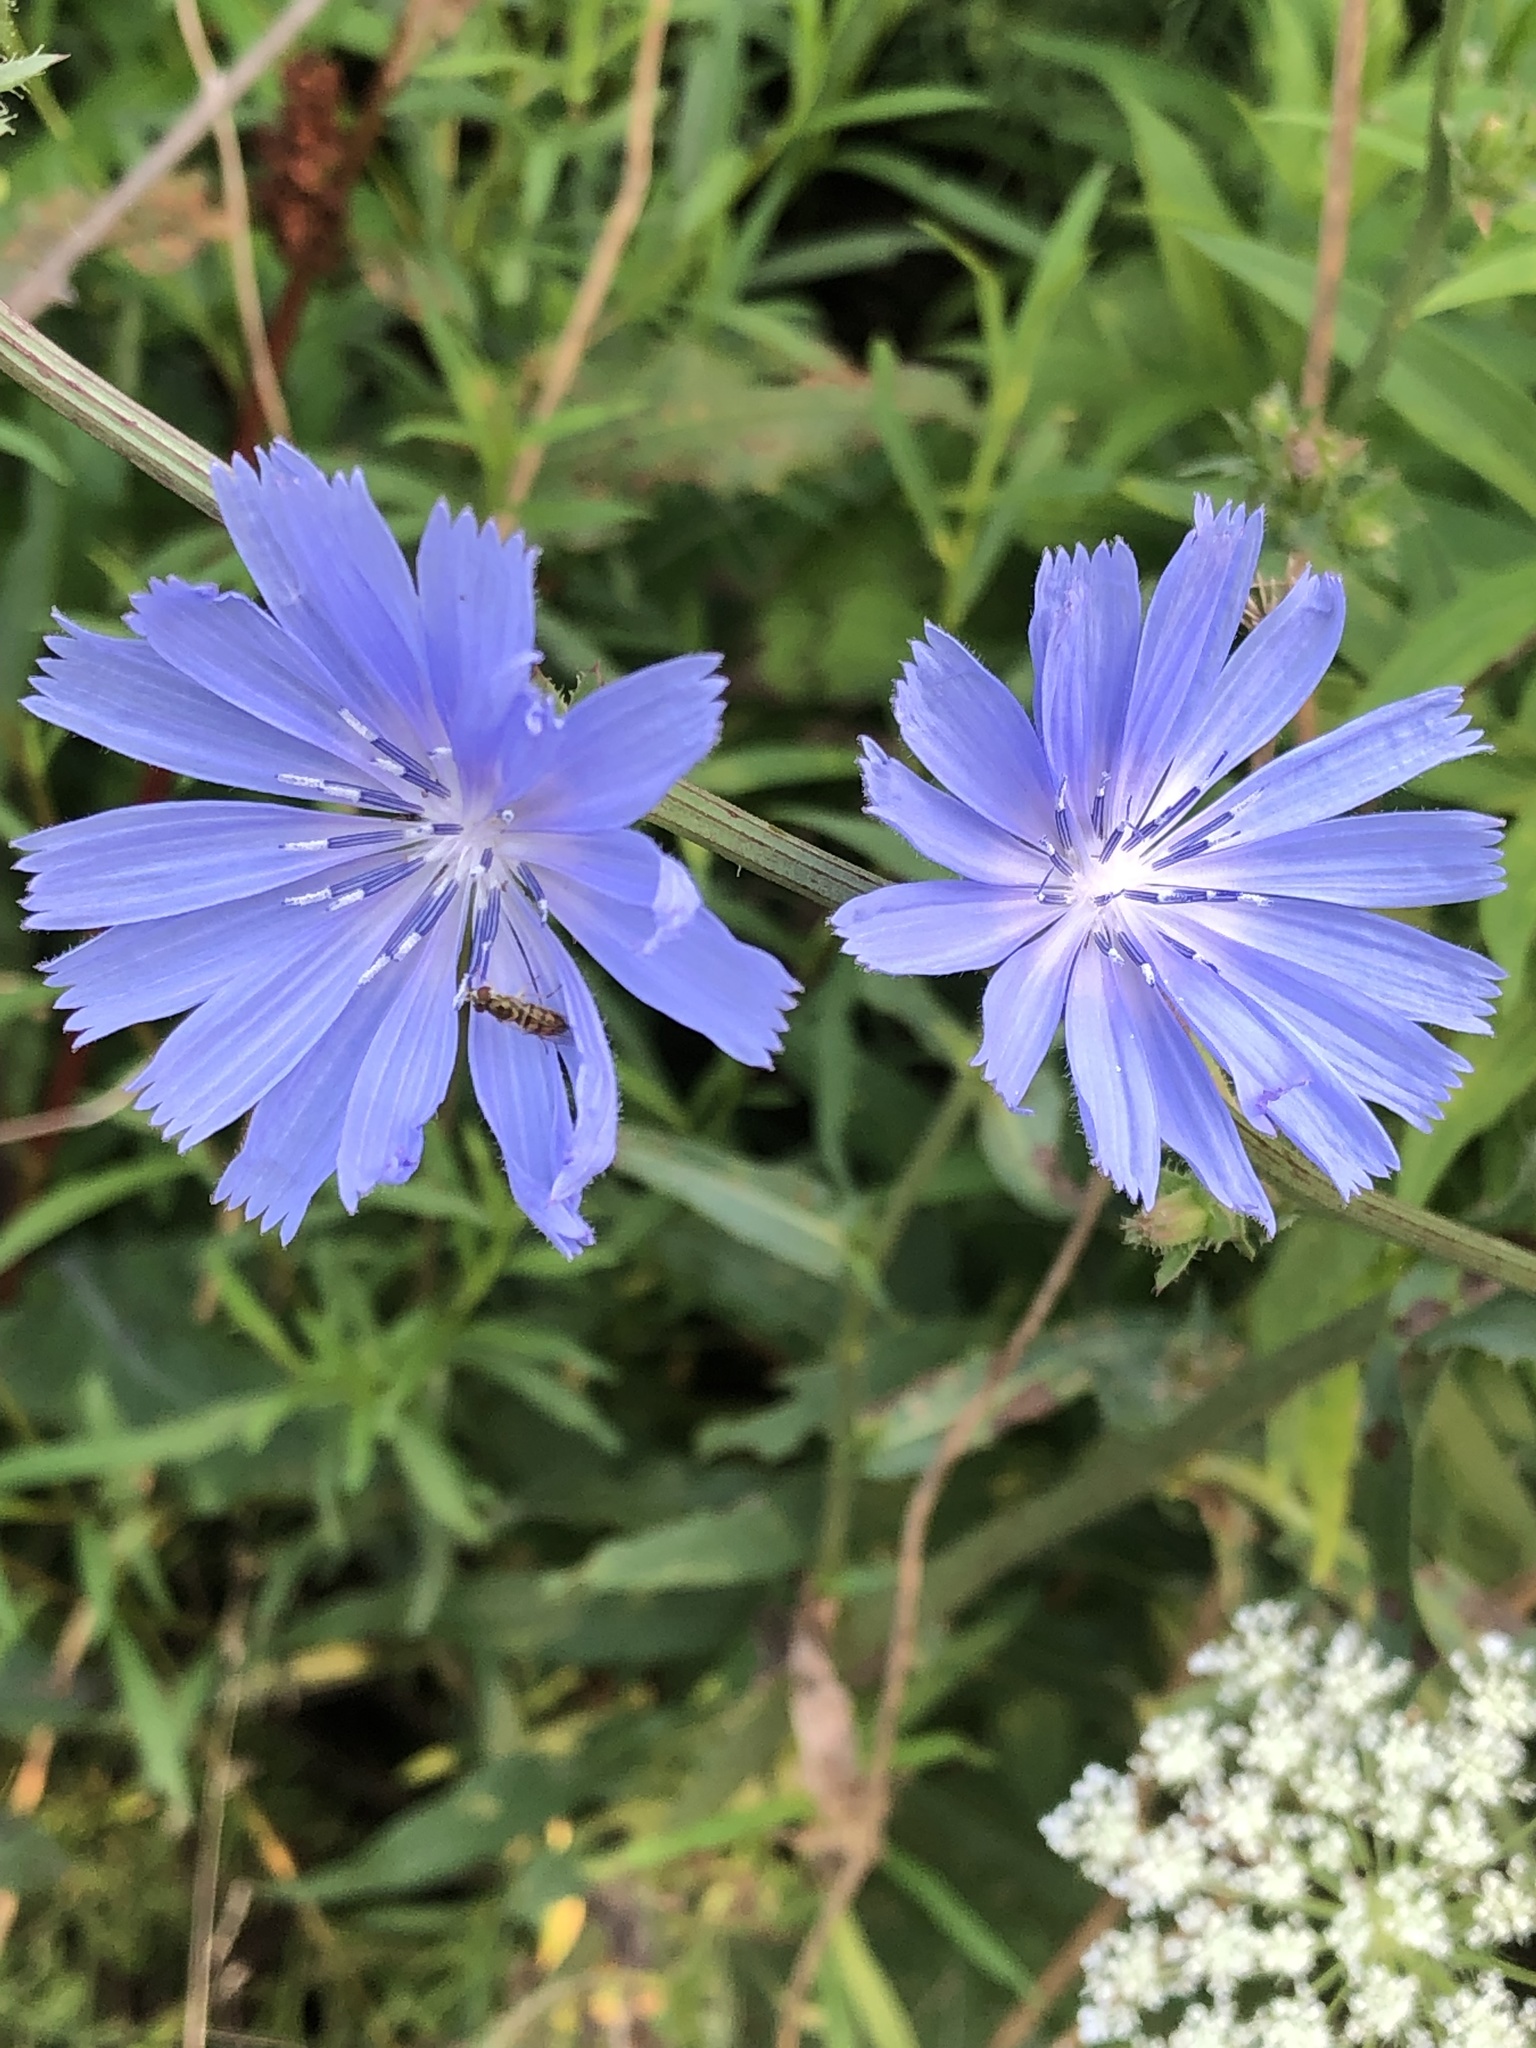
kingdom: Plantae
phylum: Tracheophyta
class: Magnoliopsida
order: Asterales
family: Asteraceae
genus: Cichorium
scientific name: Cichorium intybus
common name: Chicory
